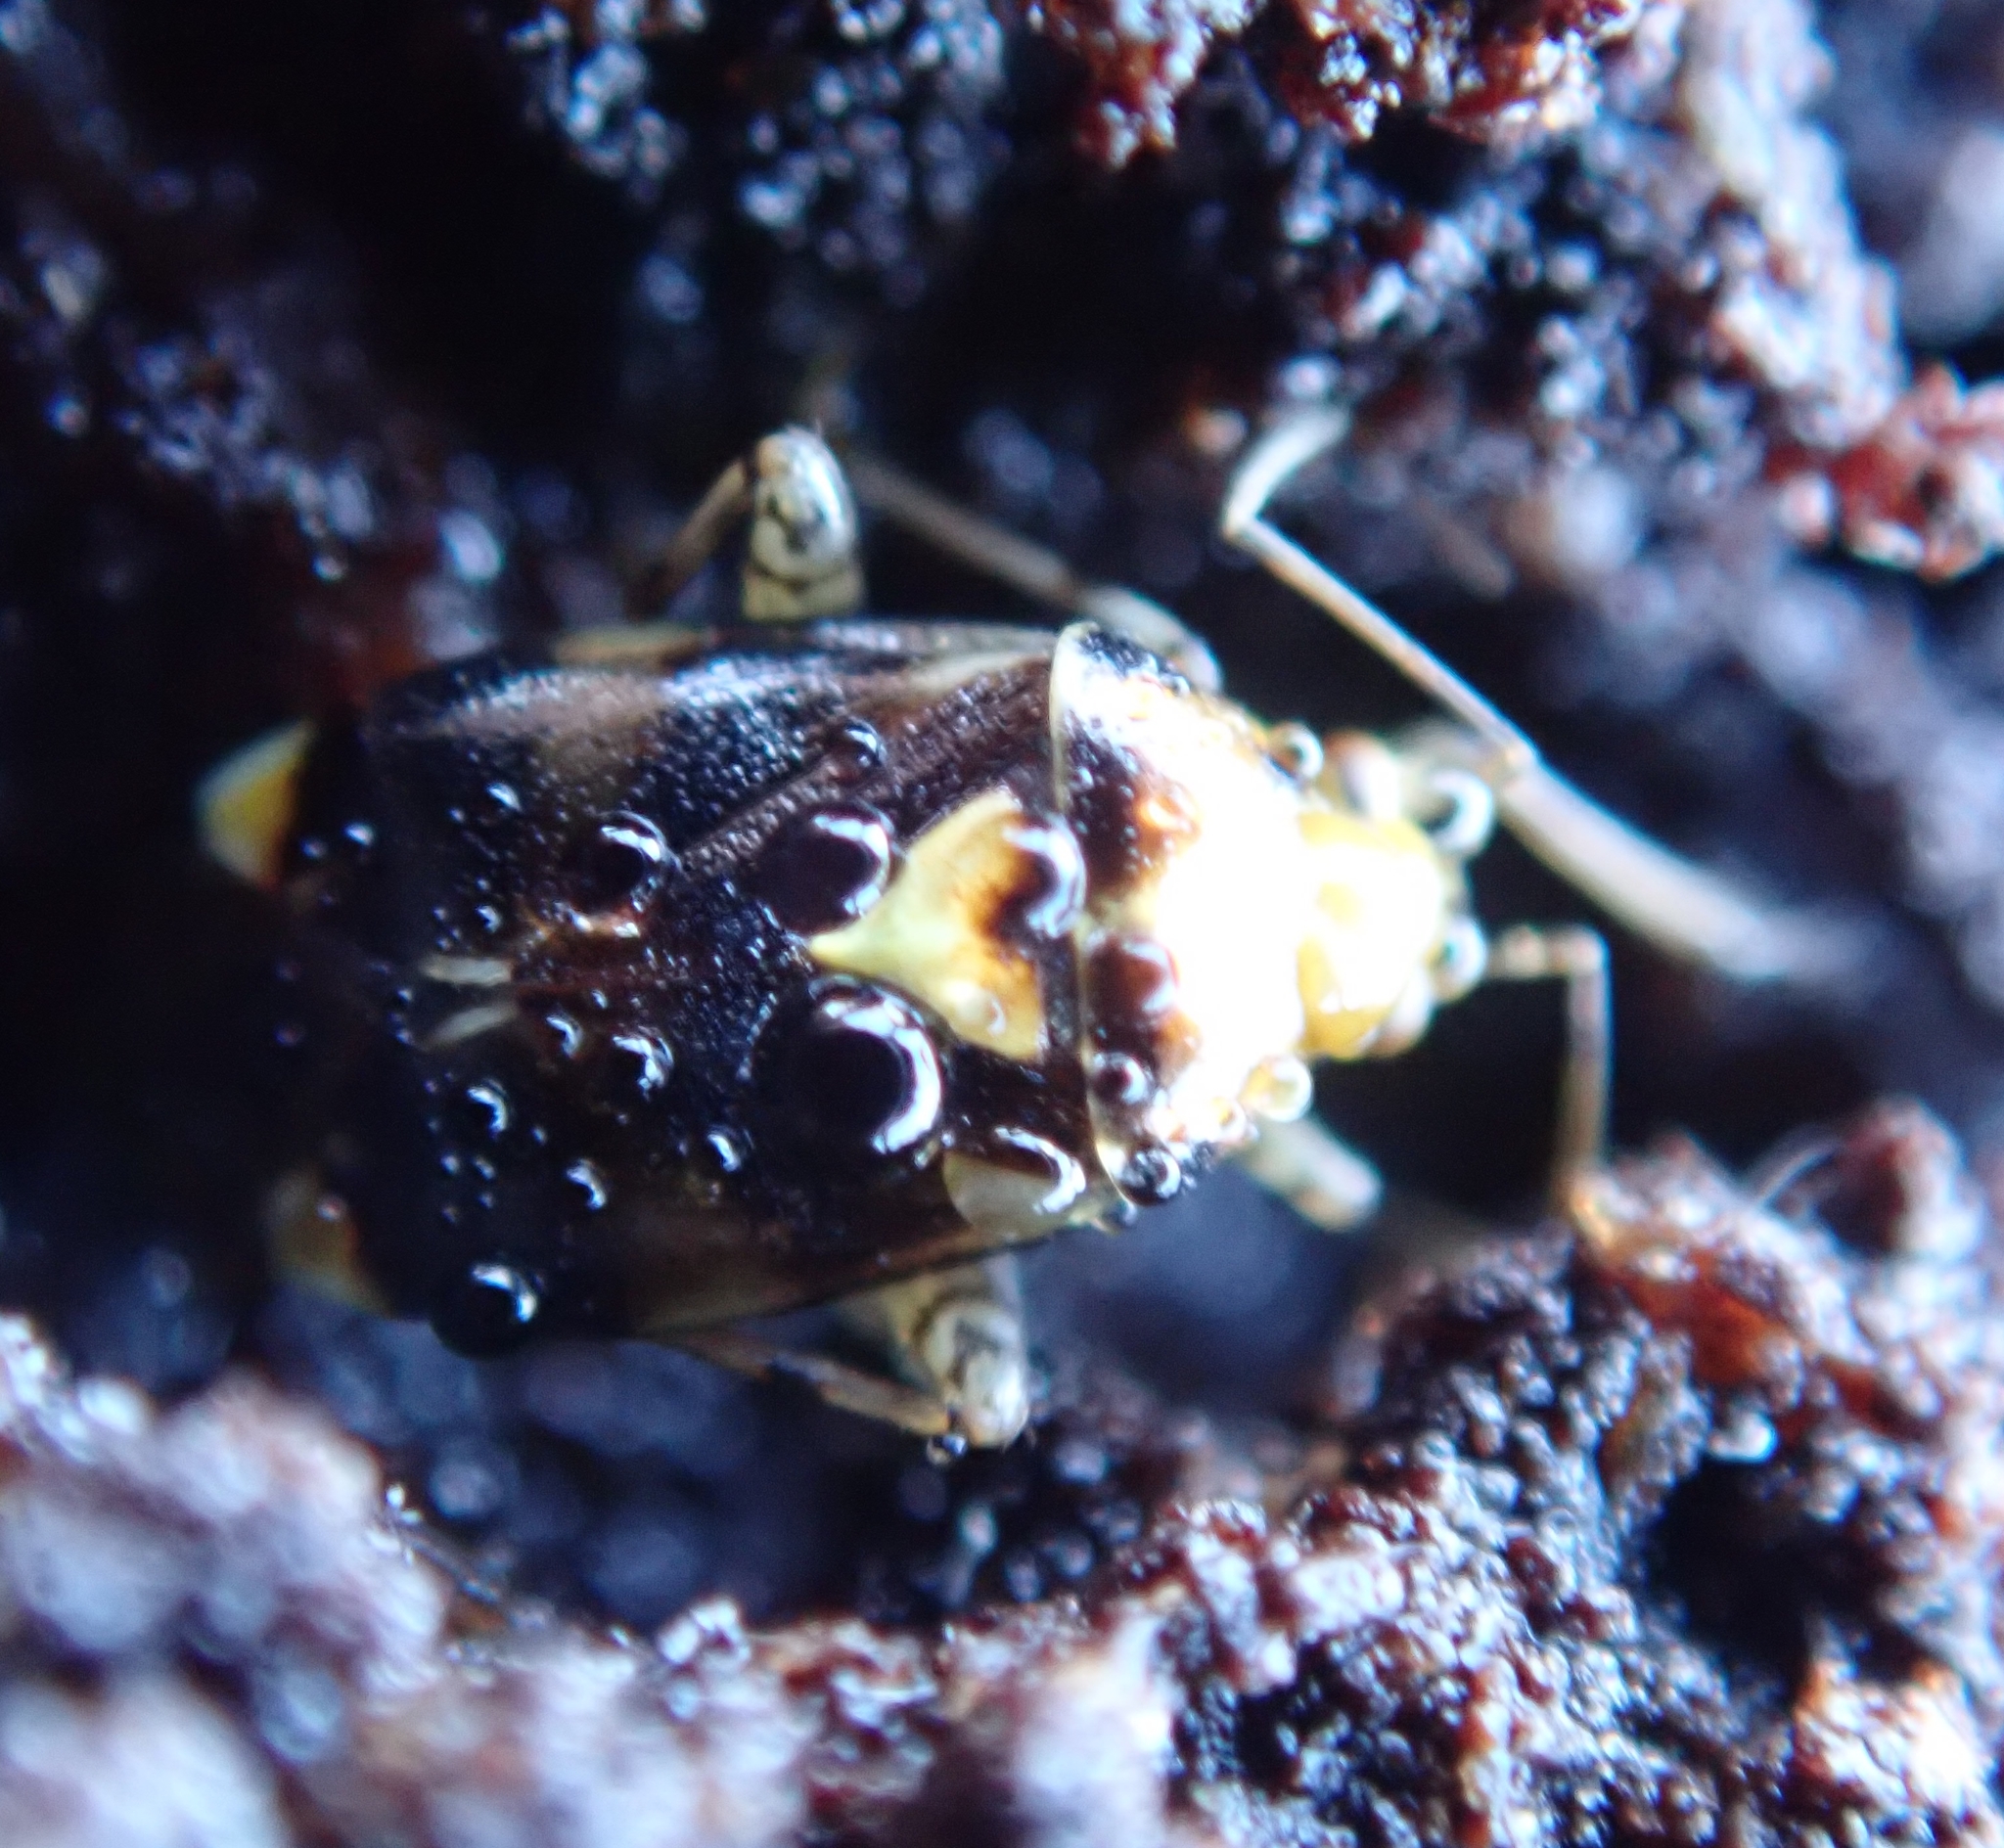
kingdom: Animalia
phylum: Arthropoda
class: Insecta
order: Hemiptera
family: Miridae
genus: Liocoris
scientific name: Liocoris tripustulatus
